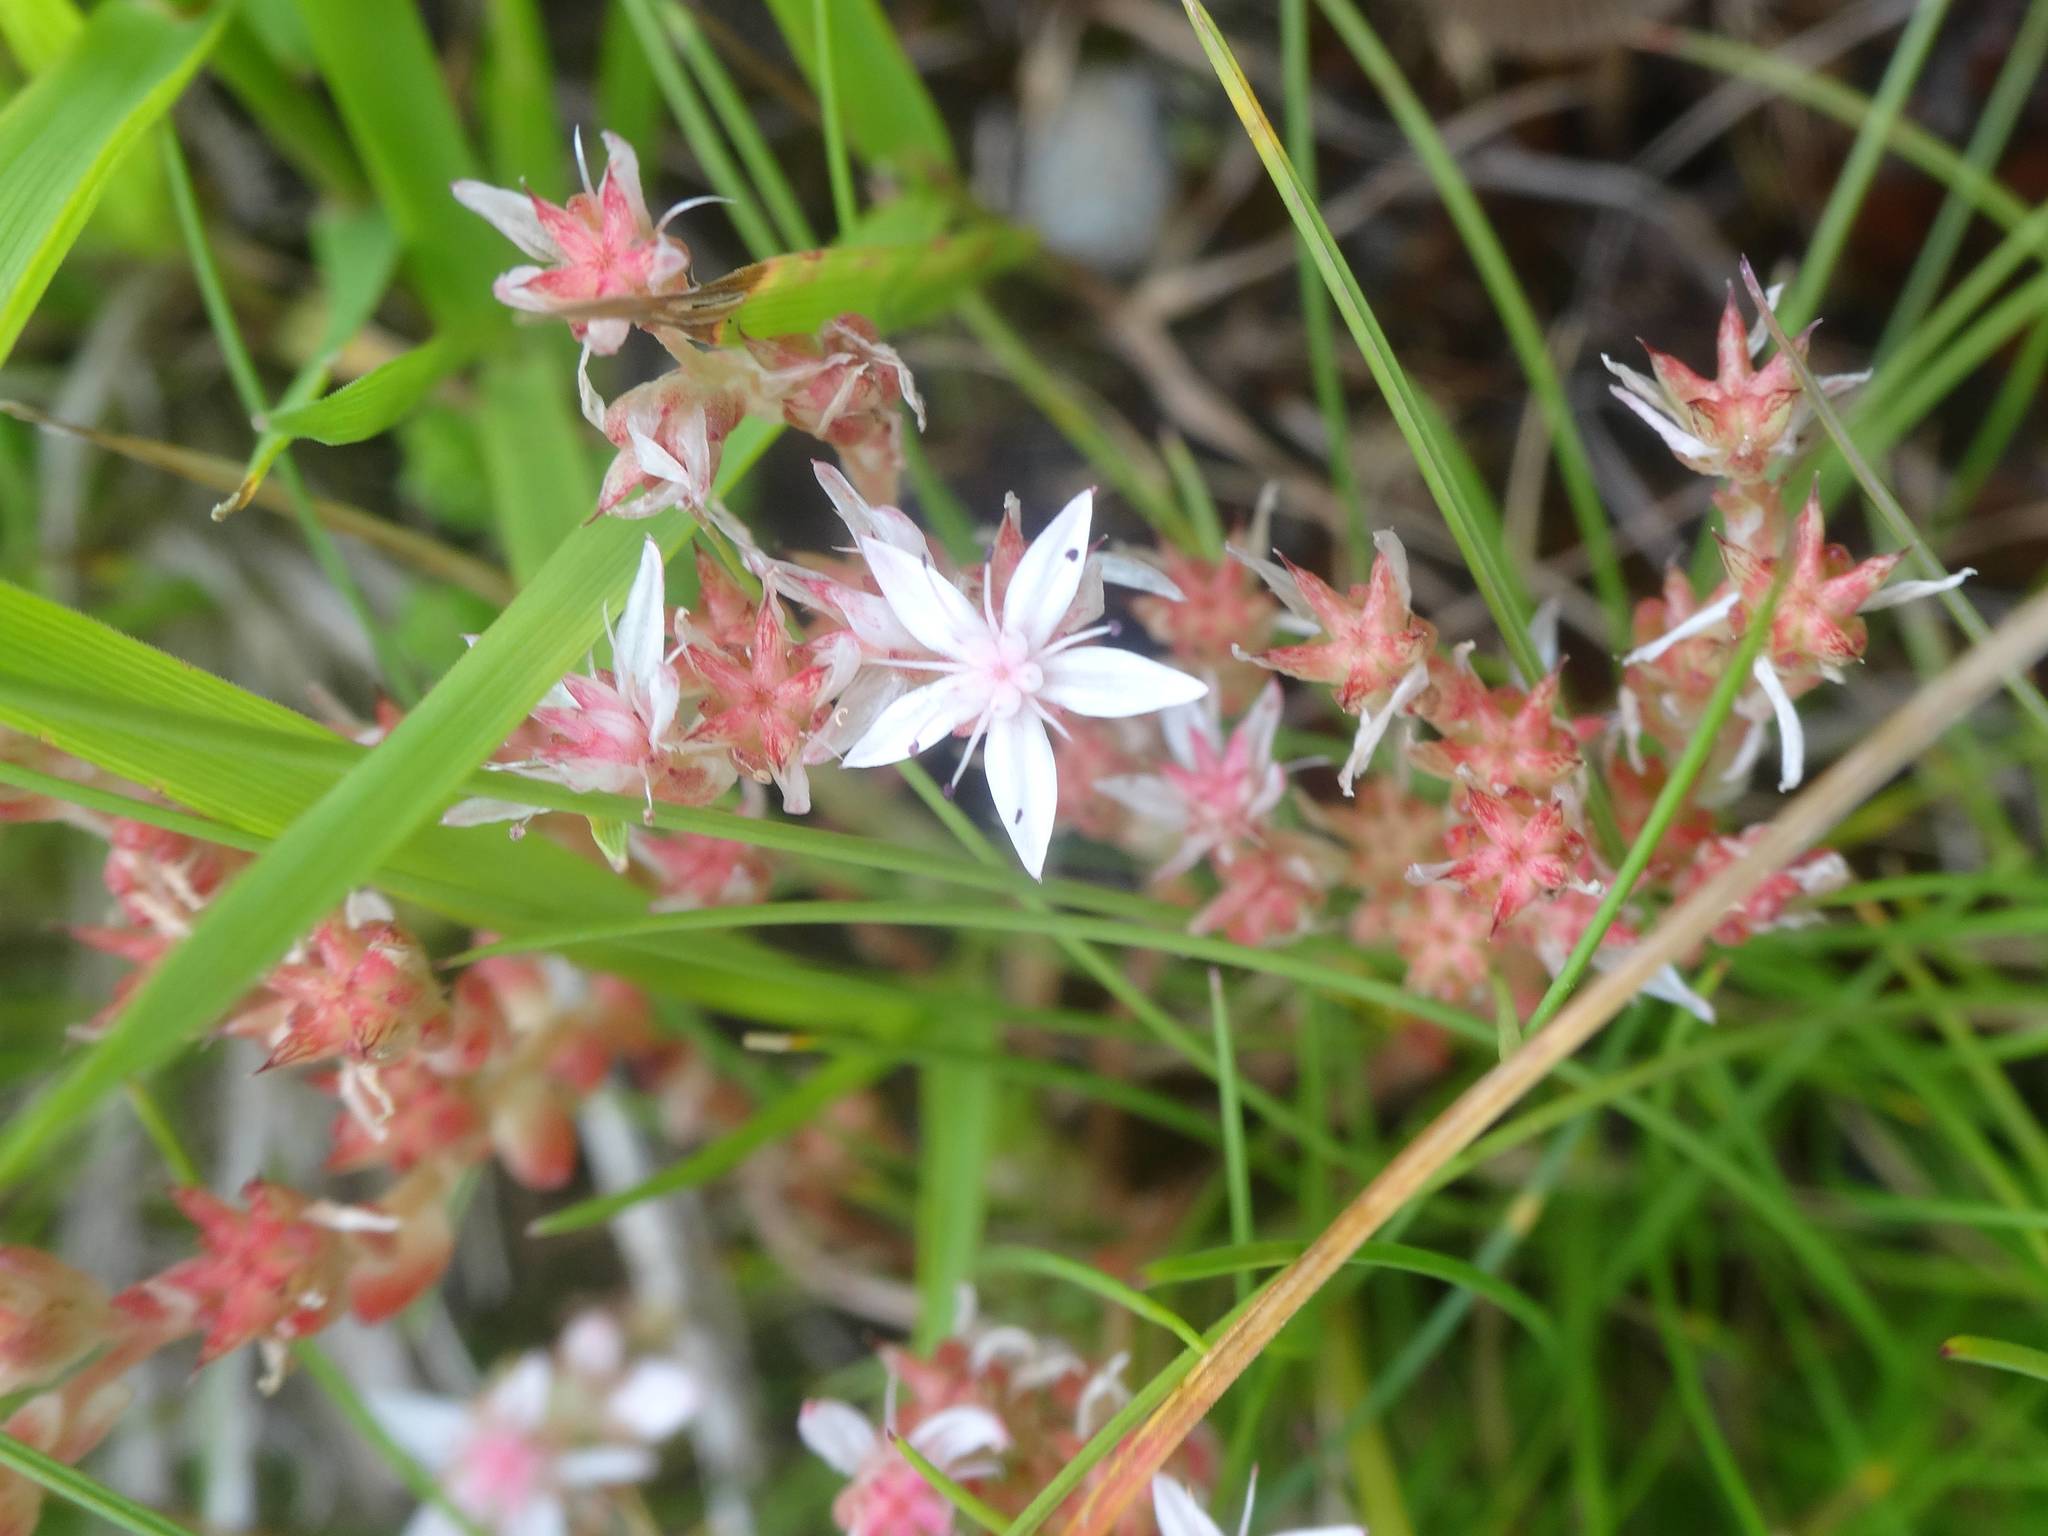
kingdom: Plantae
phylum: Tracheophyta
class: Magnoliopsida
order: Saxifragales
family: Crassulaceae
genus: Sedum
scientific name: Sedum anglicum
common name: English stonecrop
